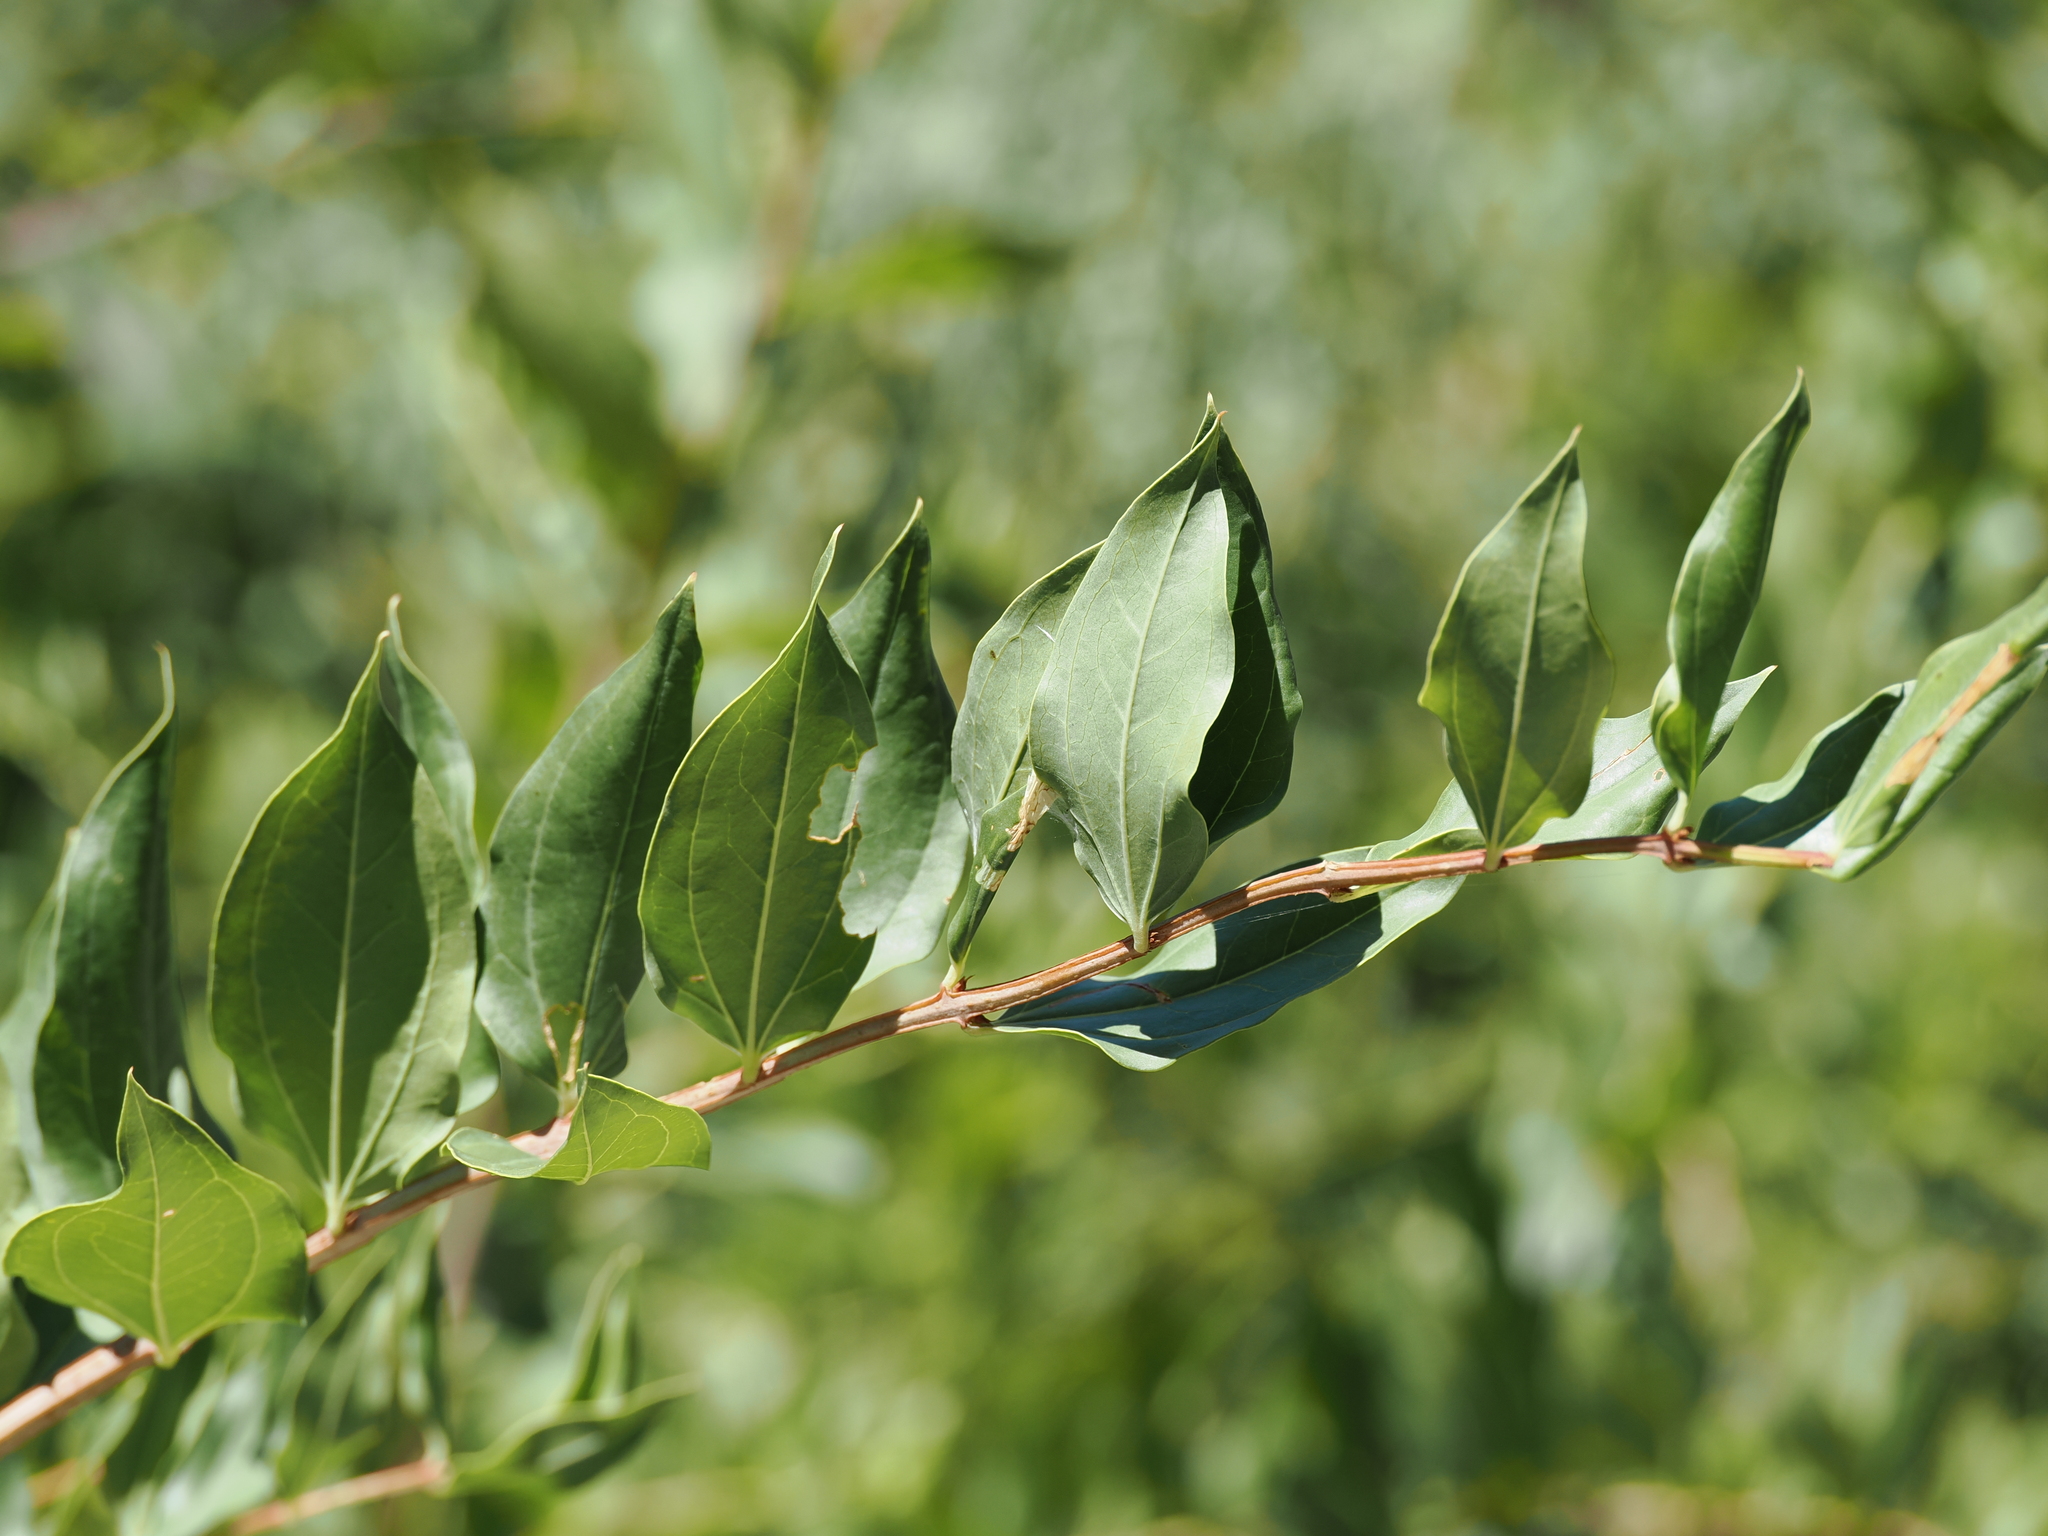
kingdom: Plantae
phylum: Tracheophyta
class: Magnoliopsida
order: Cucurbitales
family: Coriariaceae
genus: Coriaria
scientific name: Coriaria myrtifolia
